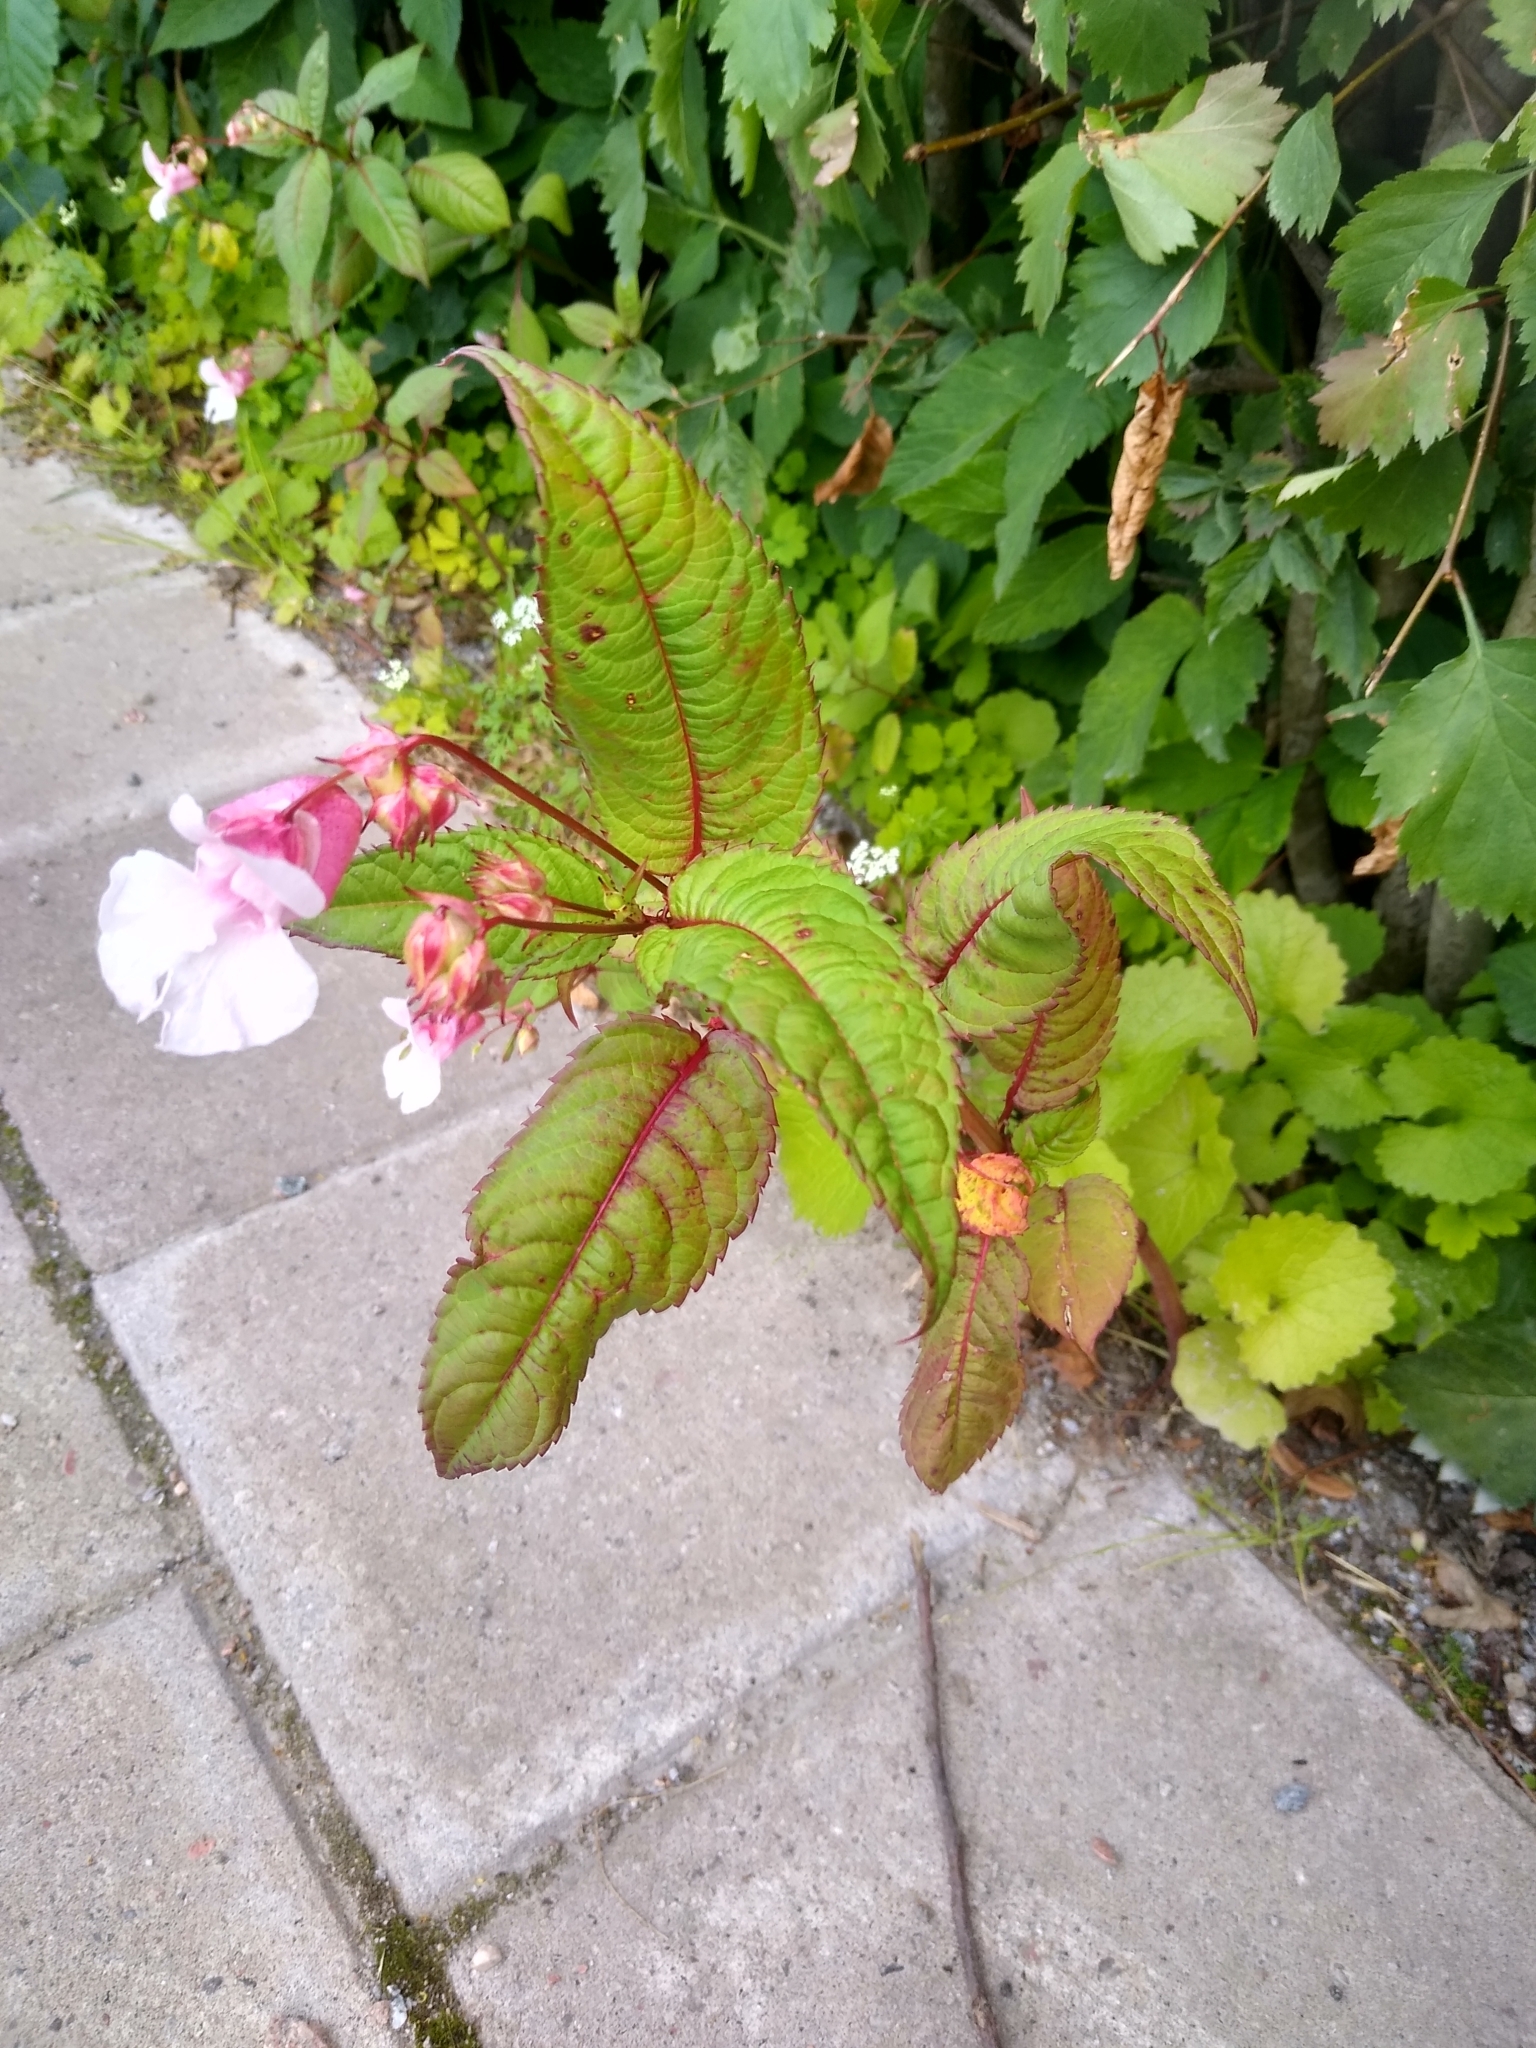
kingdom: Plantae
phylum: Tracheophyta
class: Magnoliopsida
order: Ericales
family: Balsaminaceae
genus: Impatiens
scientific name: Impatiens glandulifera
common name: Himalayan balsam
